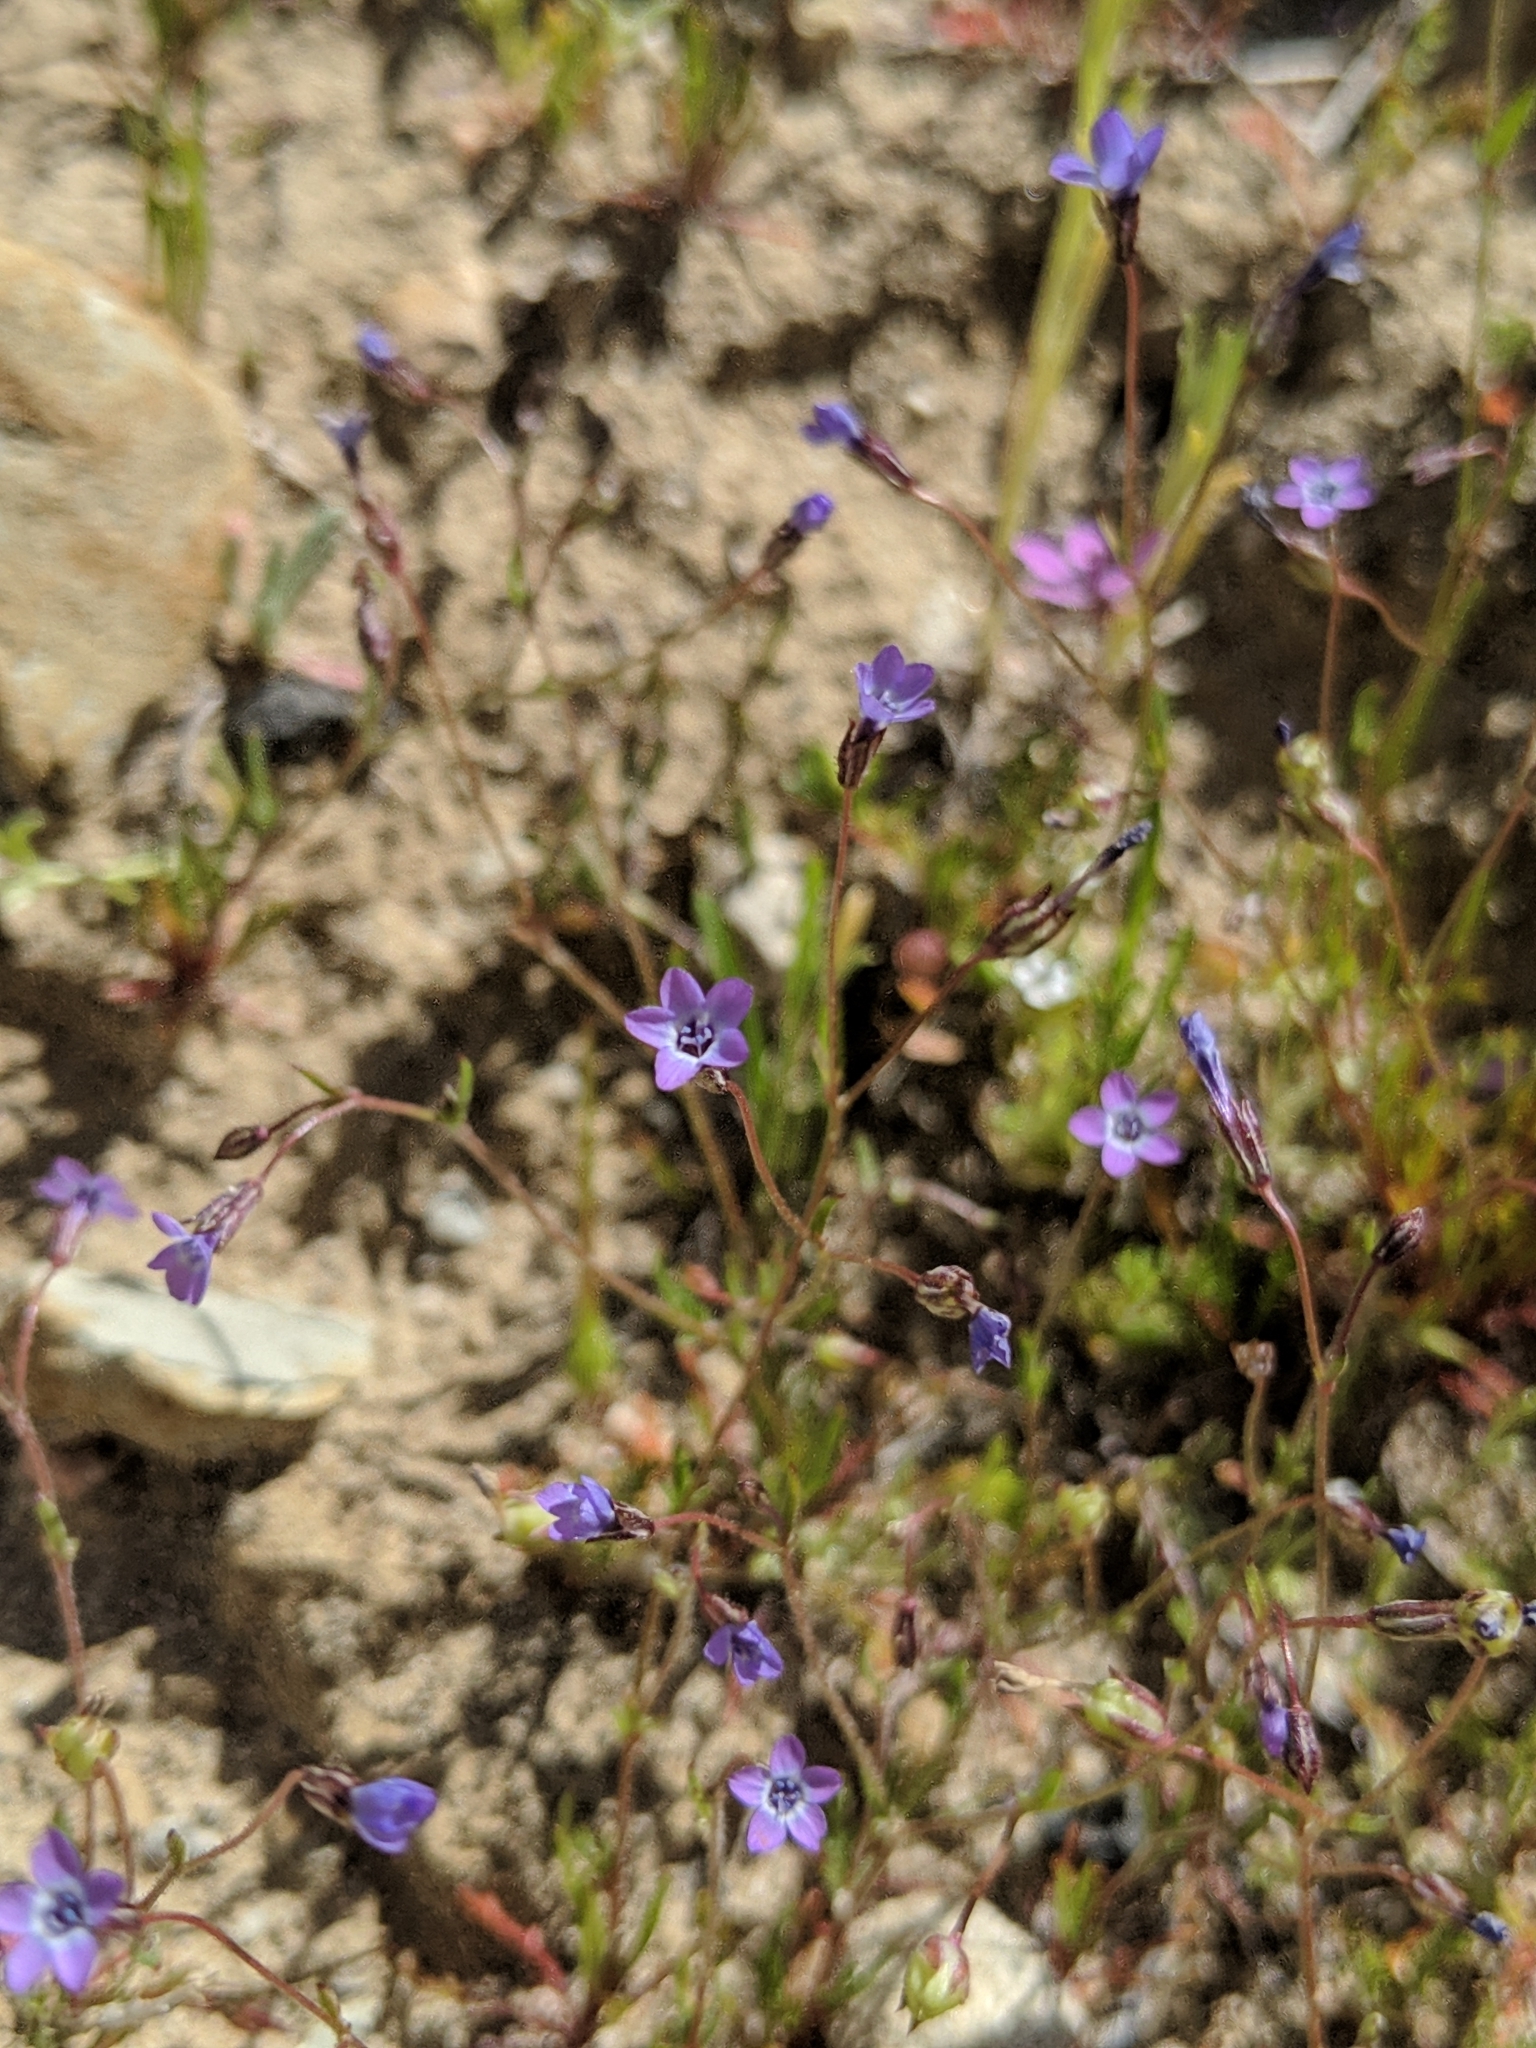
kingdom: Plantae
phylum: Tracheophyta
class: Magnoliopsida
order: Ericales
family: Polemoniaceae
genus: Gilia
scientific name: Gilia minor
